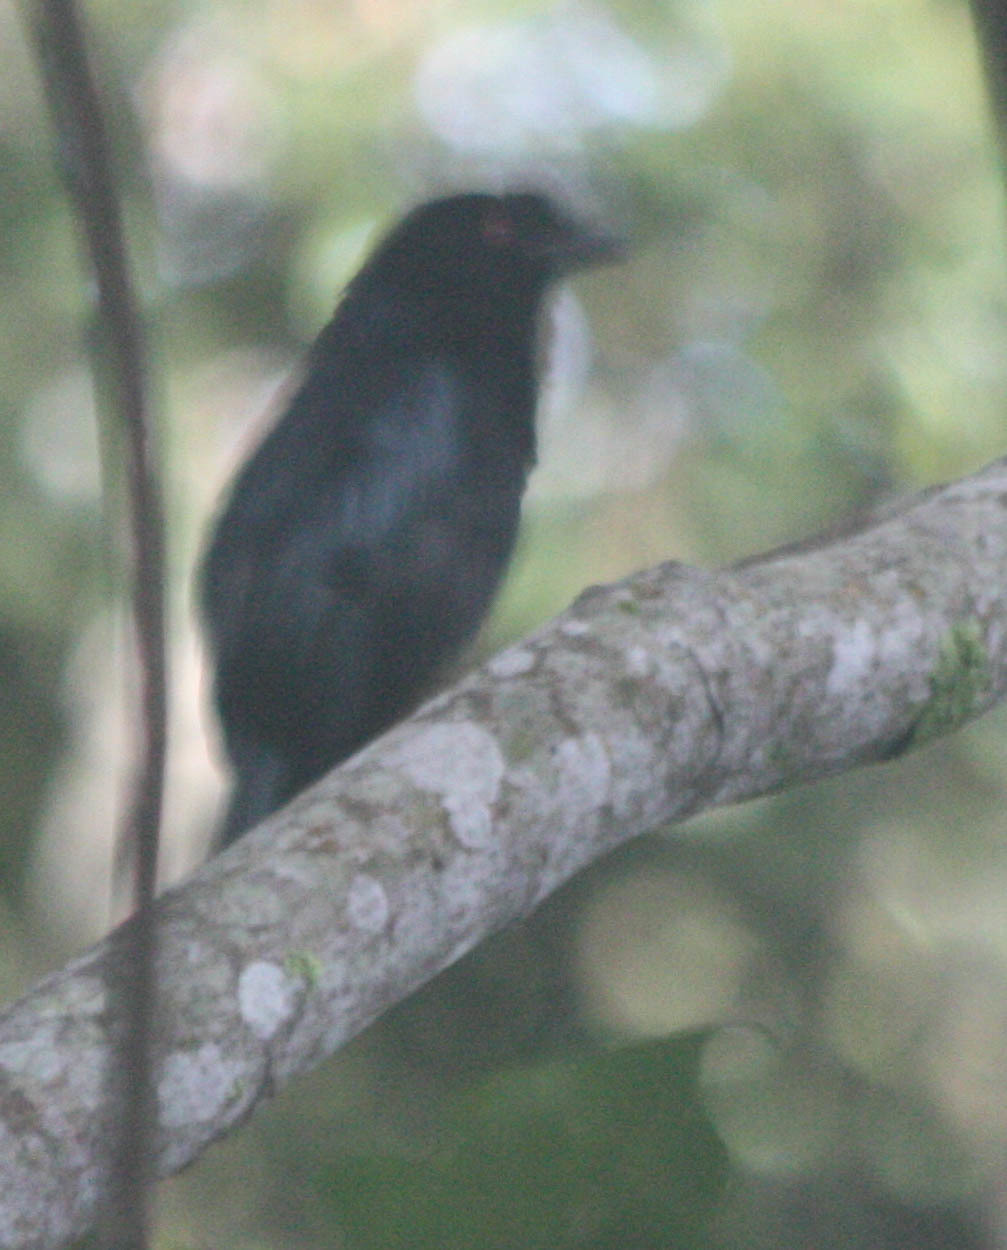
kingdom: Animalia
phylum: Chordata
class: Aves
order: Passeriformes
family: Dicruridae
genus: Dicrurus
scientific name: Dicrurus paradiseus
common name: Greater racket-tailed drongo
